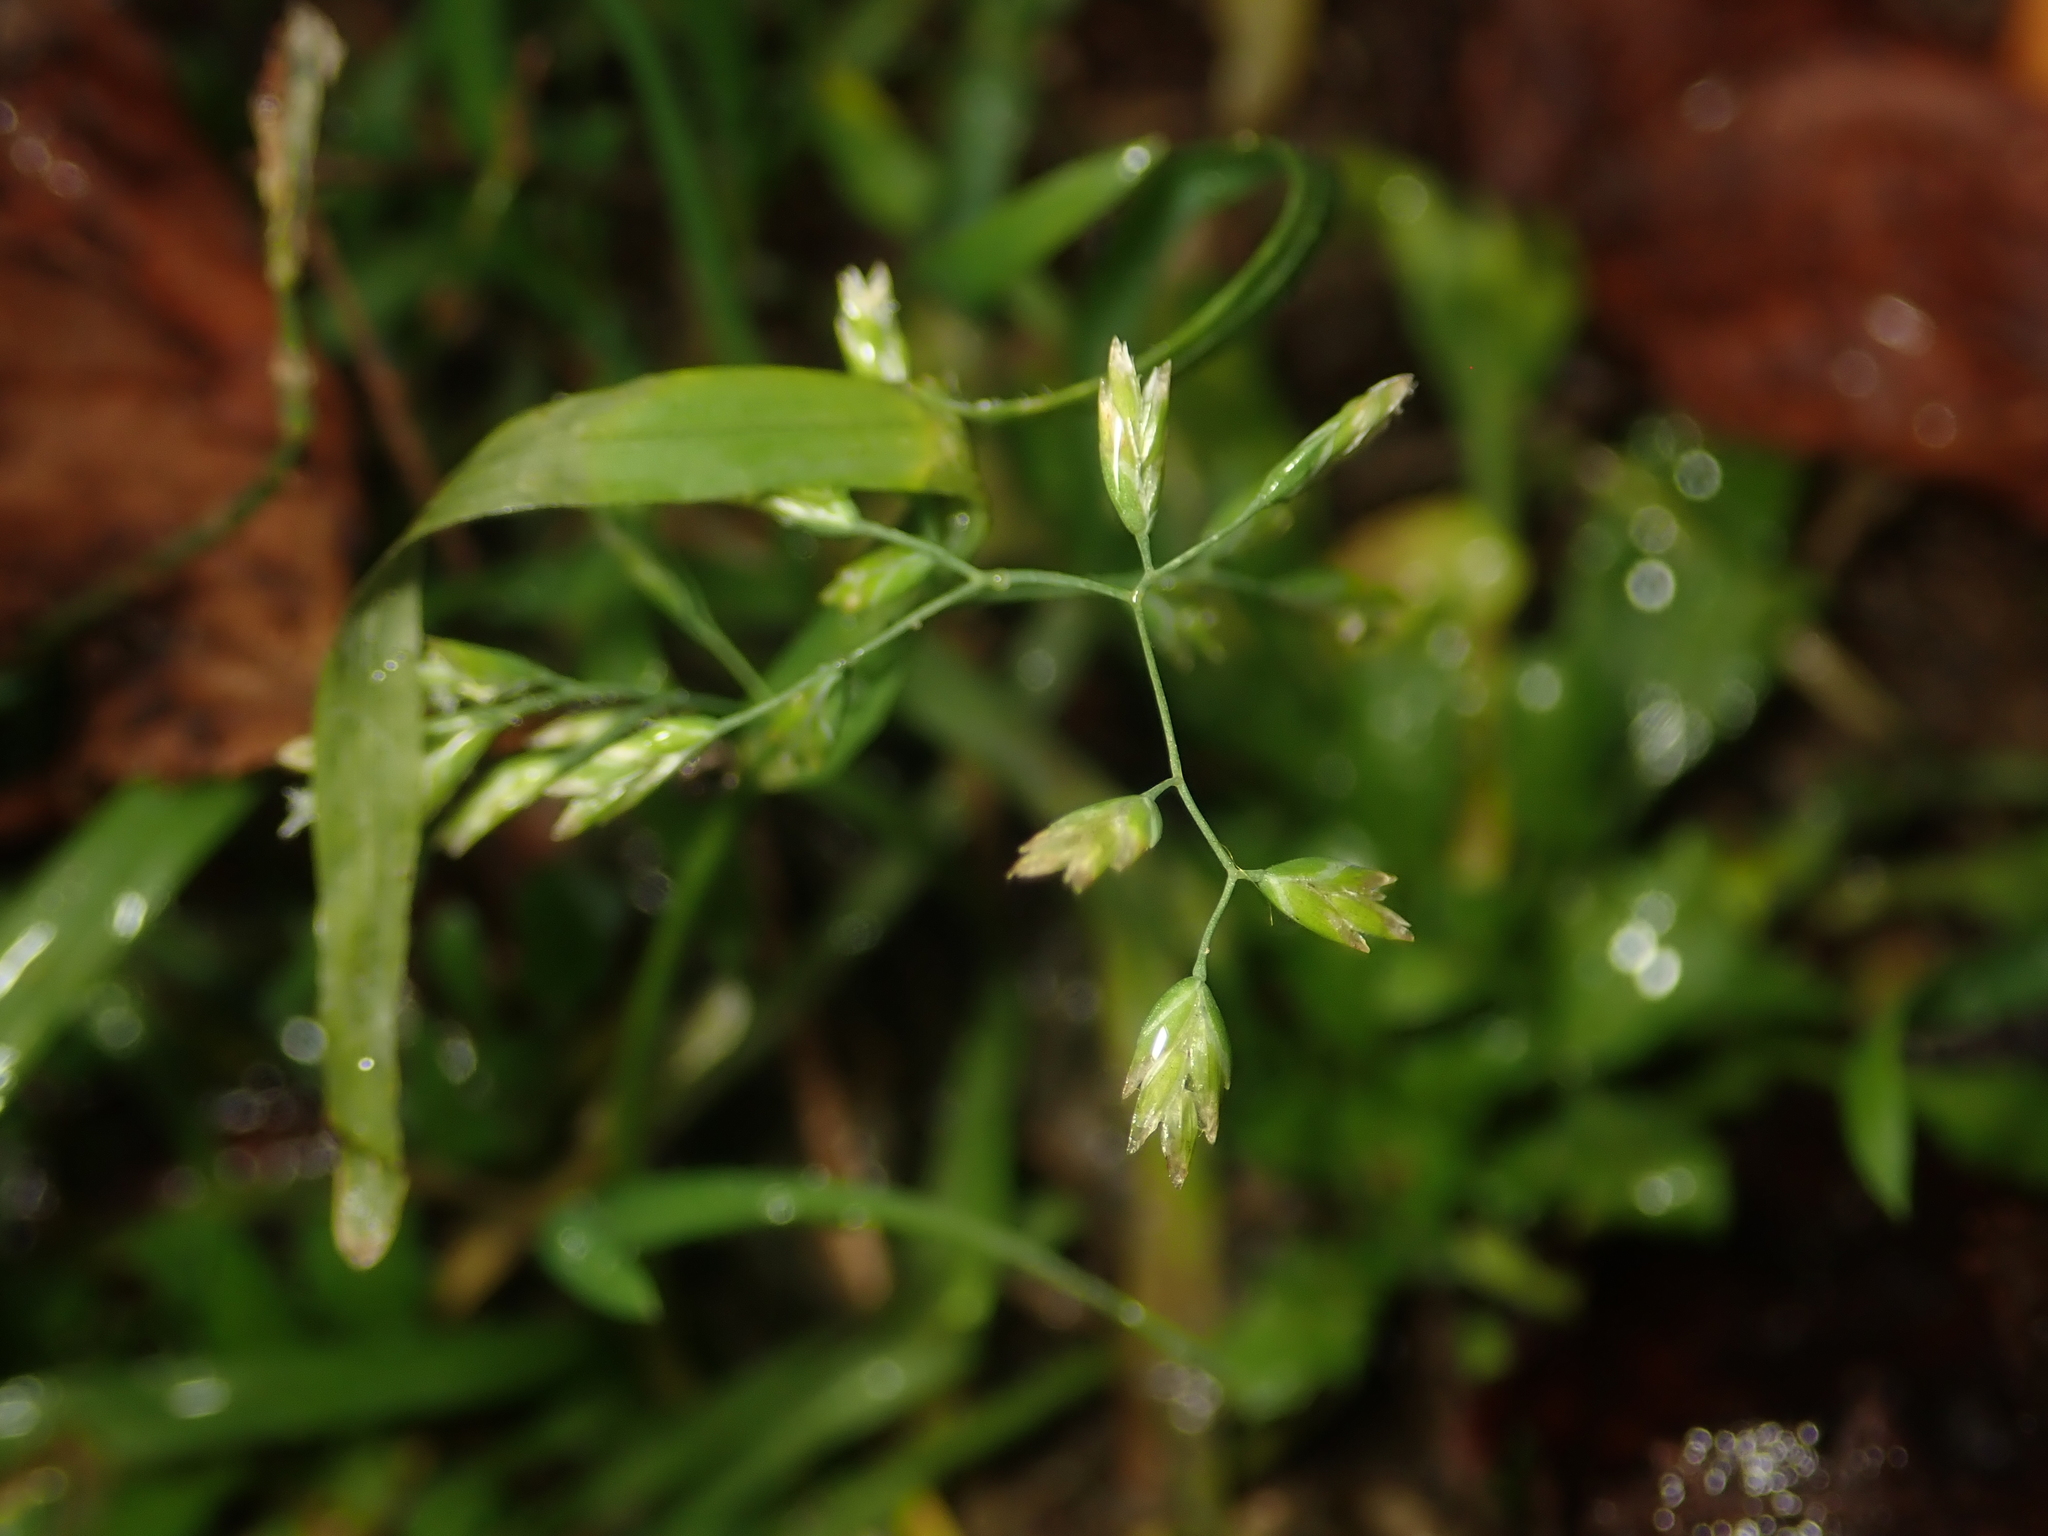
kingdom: Plantae
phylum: Tracheophyta
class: Liliopsida
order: Poales
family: Poaceae
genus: Poa
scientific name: Poa annua
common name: Annual bluegrass
